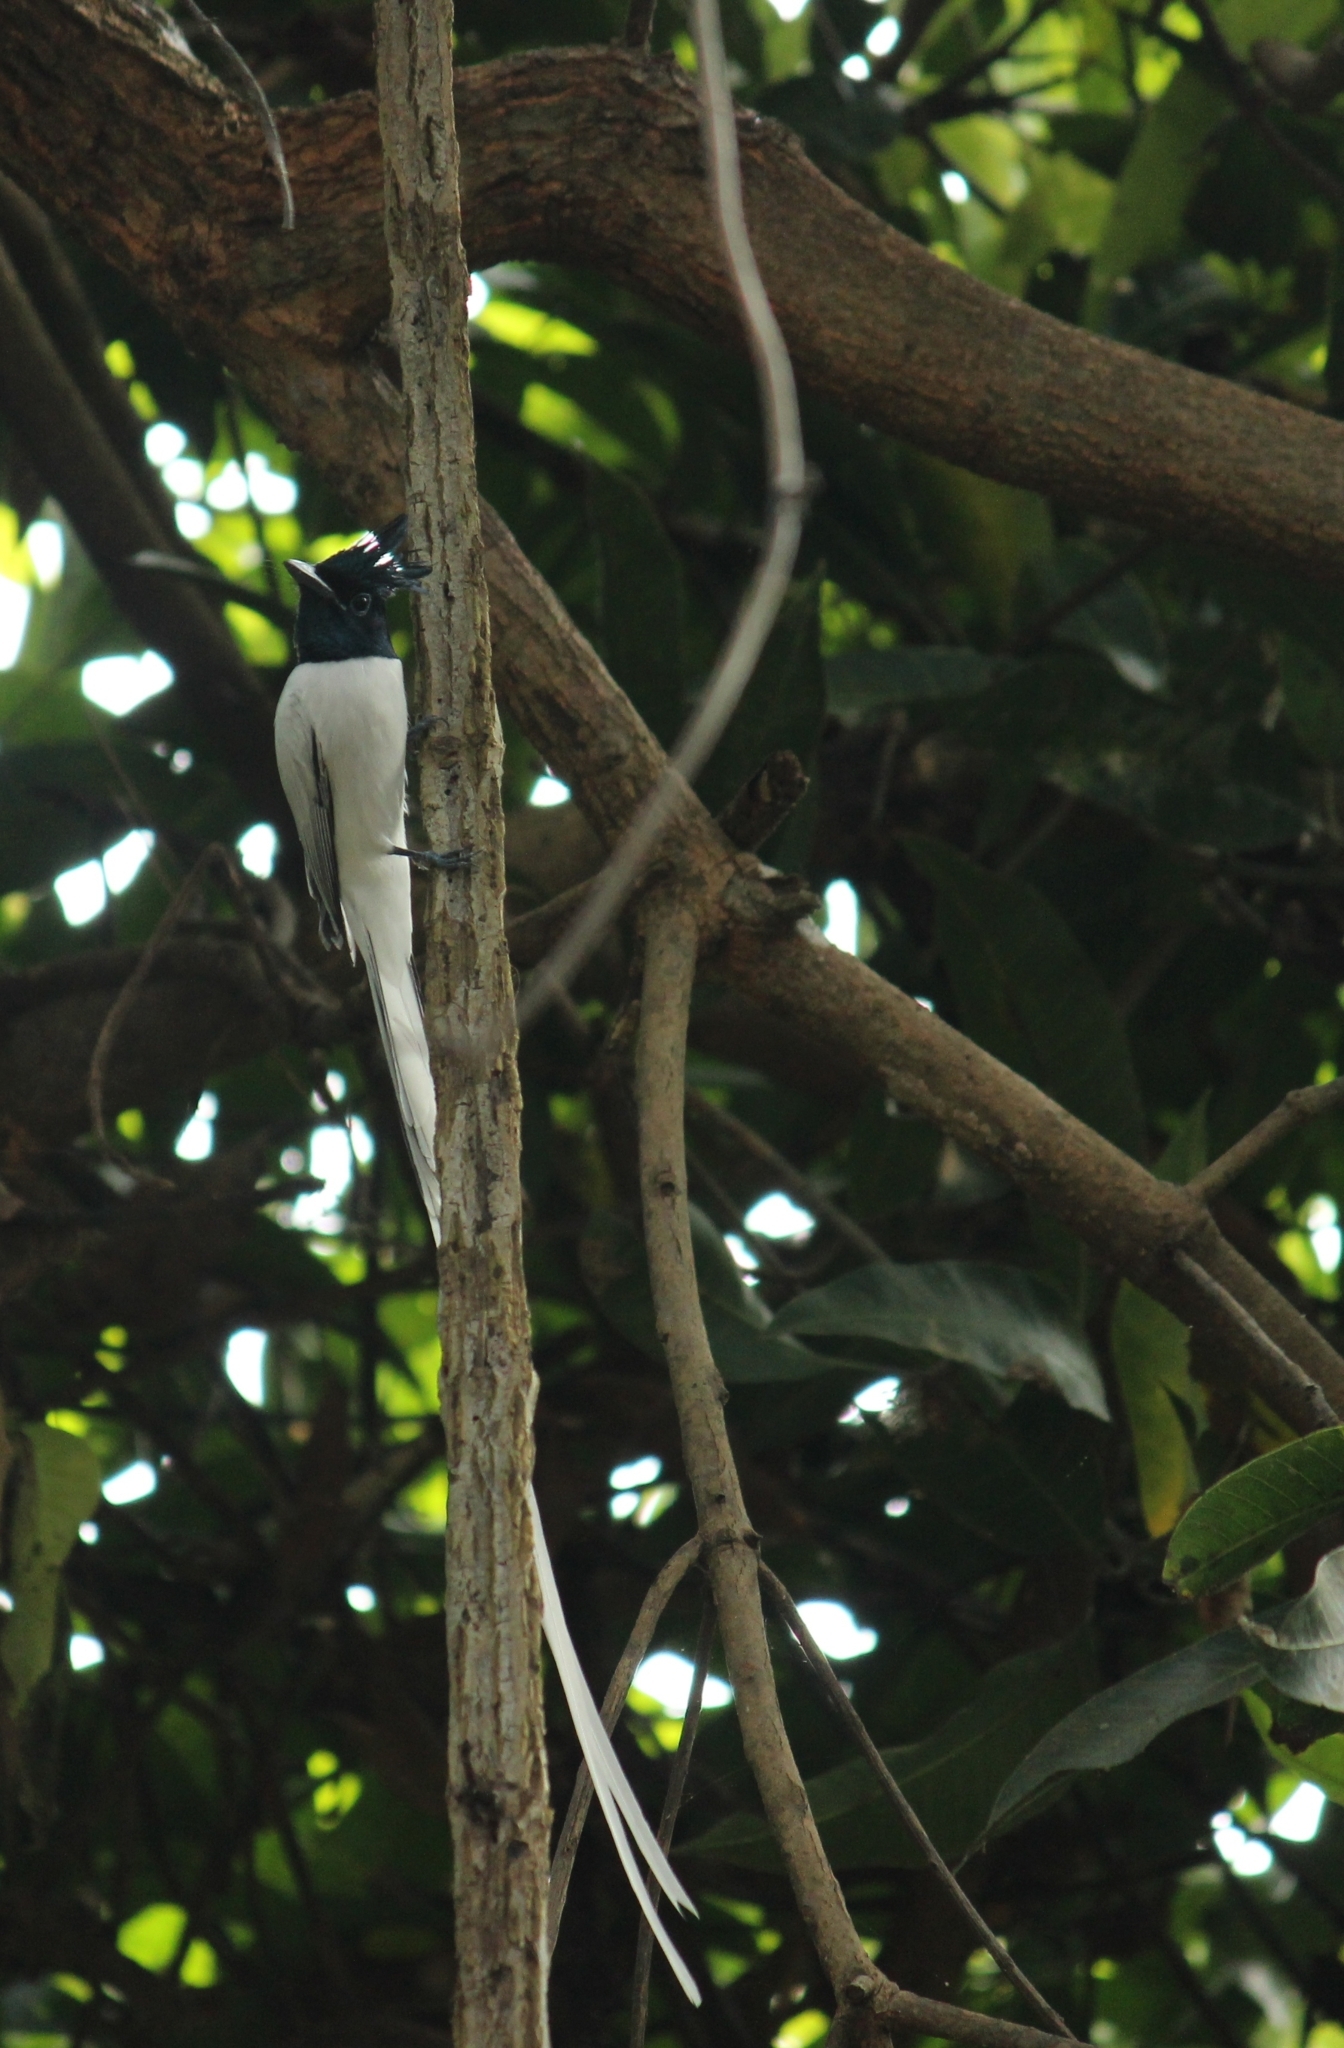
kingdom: Animalia
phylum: Chordata
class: Aves
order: Passeriformes
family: Monarchidae
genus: Terpsiphone
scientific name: Terpsiphone paradisi
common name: Indian paradise flycatcher
